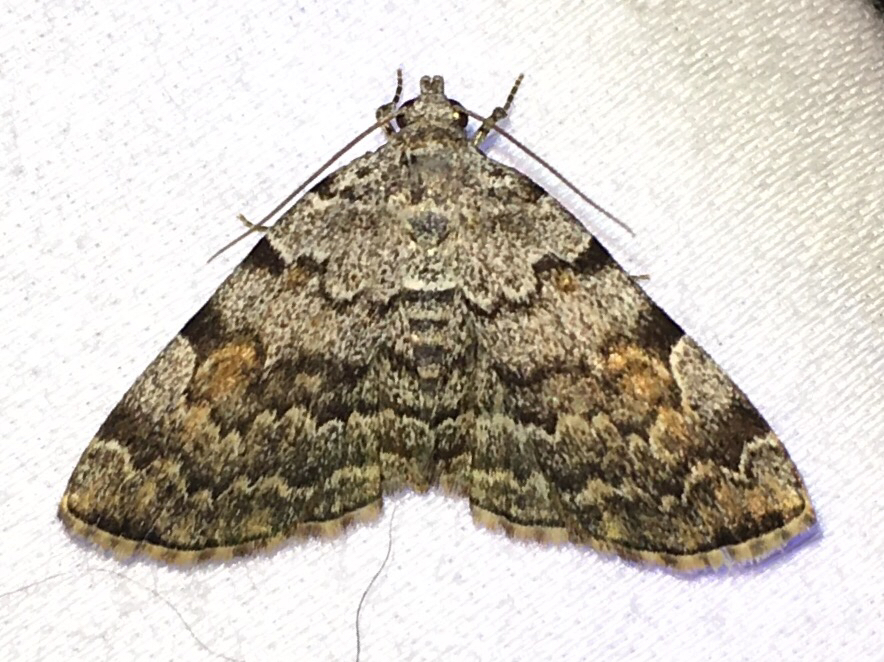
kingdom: Animalia
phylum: Arthropoda
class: Insecta
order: Lepidoptera
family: Erebidae
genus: Idia
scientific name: Idia americalis
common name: American idia moth
